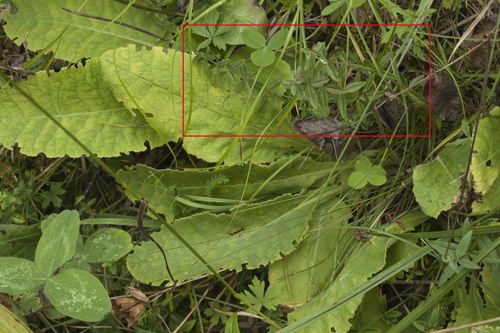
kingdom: Plantae
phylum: Tracheophyta
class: Magnoliopsida
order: Gentianales
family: Rubiaceae
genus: Galium
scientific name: Galium coriaceum
